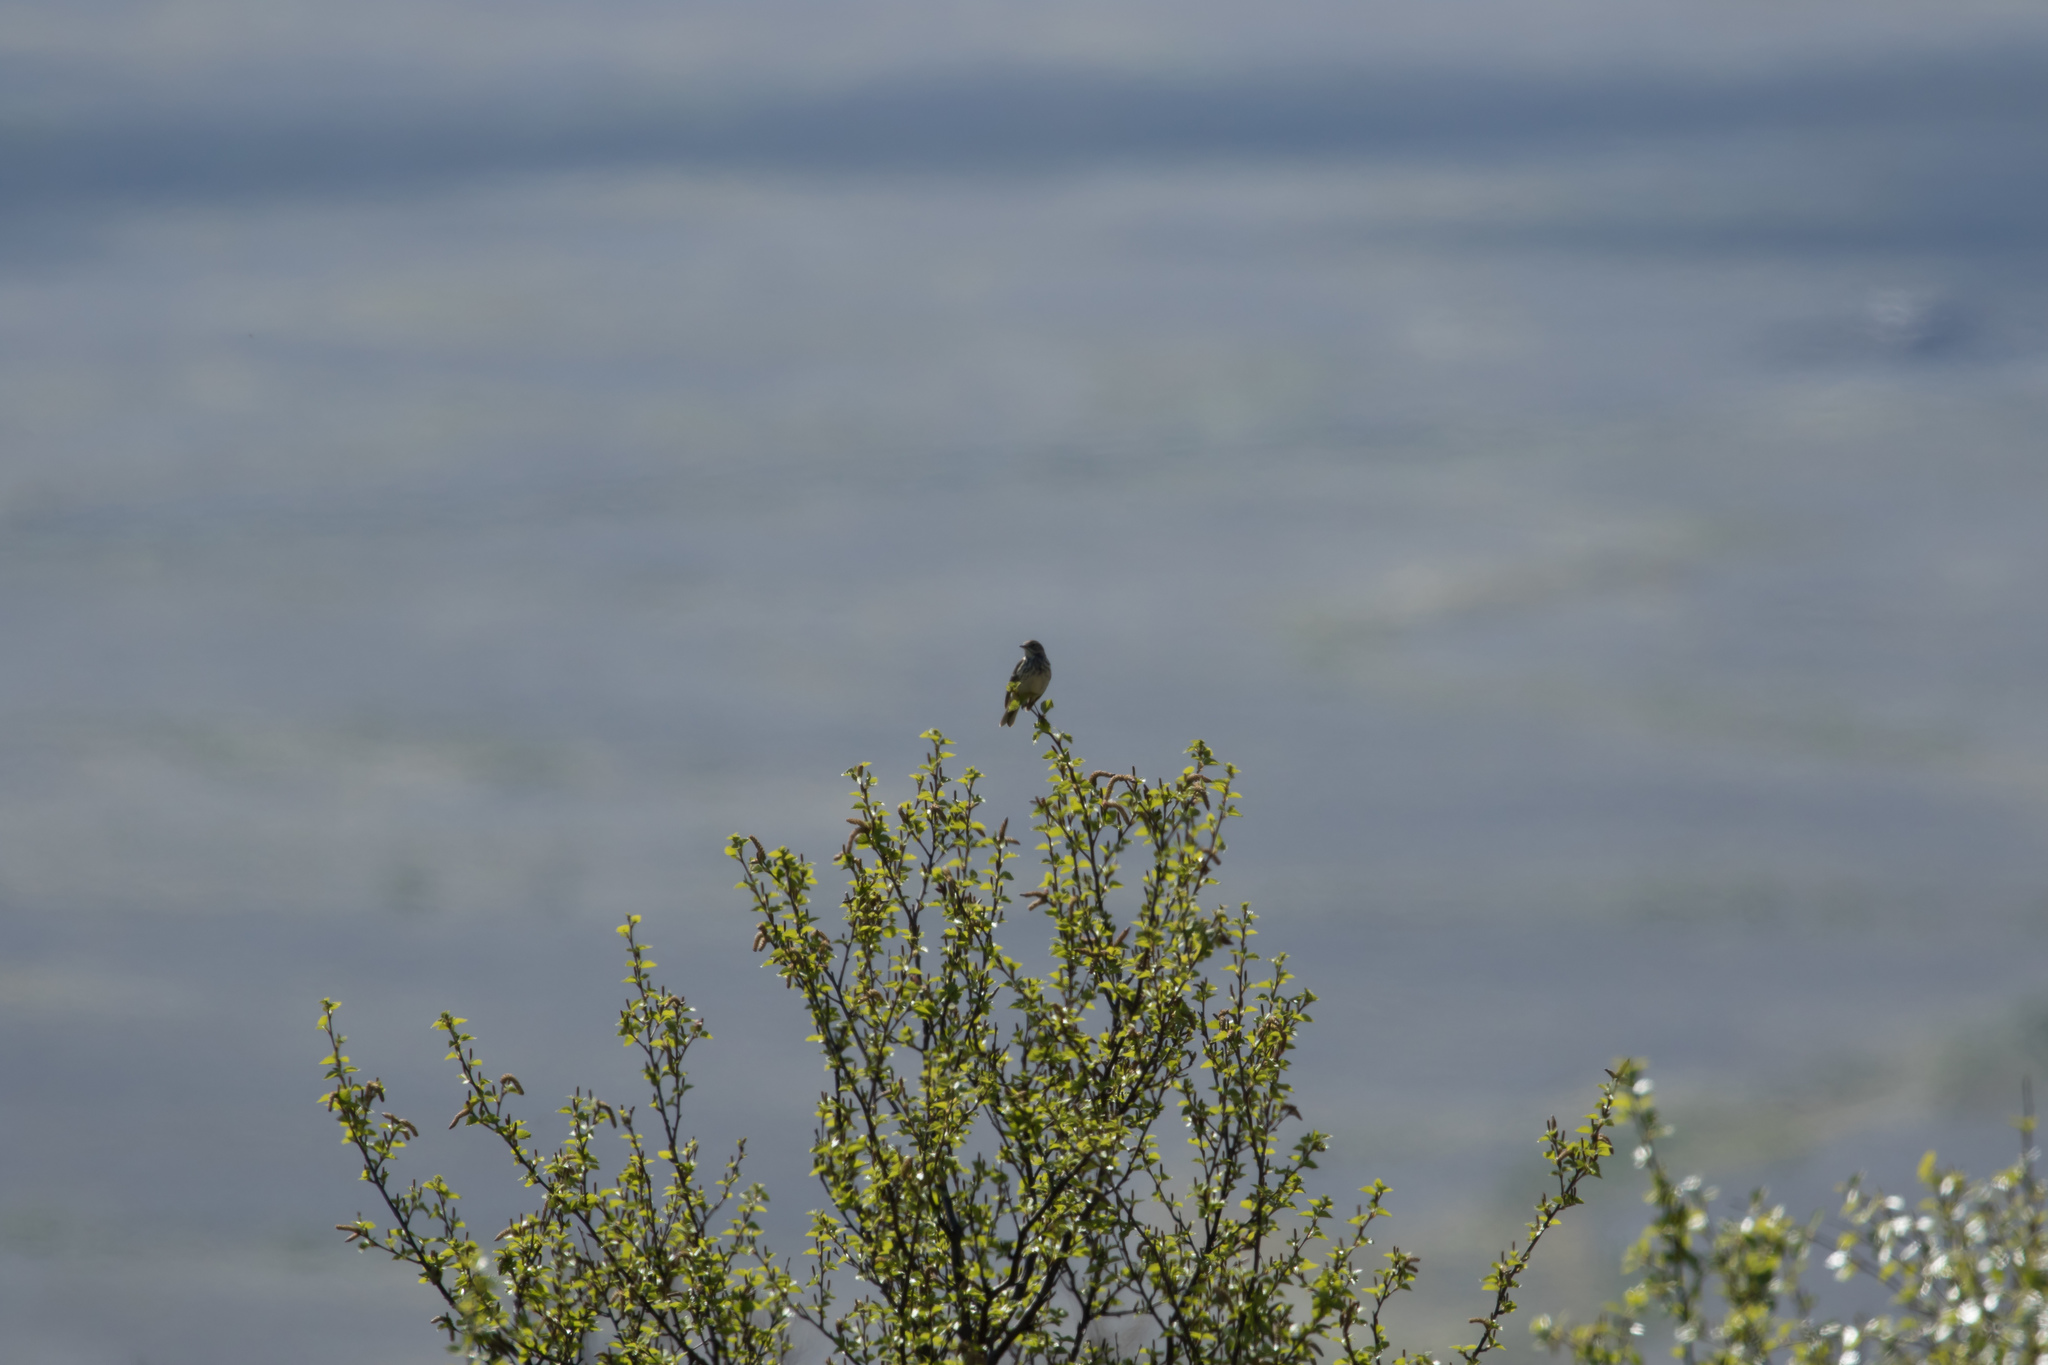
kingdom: Animalia
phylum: Chordata
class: Aves
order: Passeriformes
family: Motacillidae
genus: Anthus
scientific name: Anthus pratensis
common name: Meadow pipit
